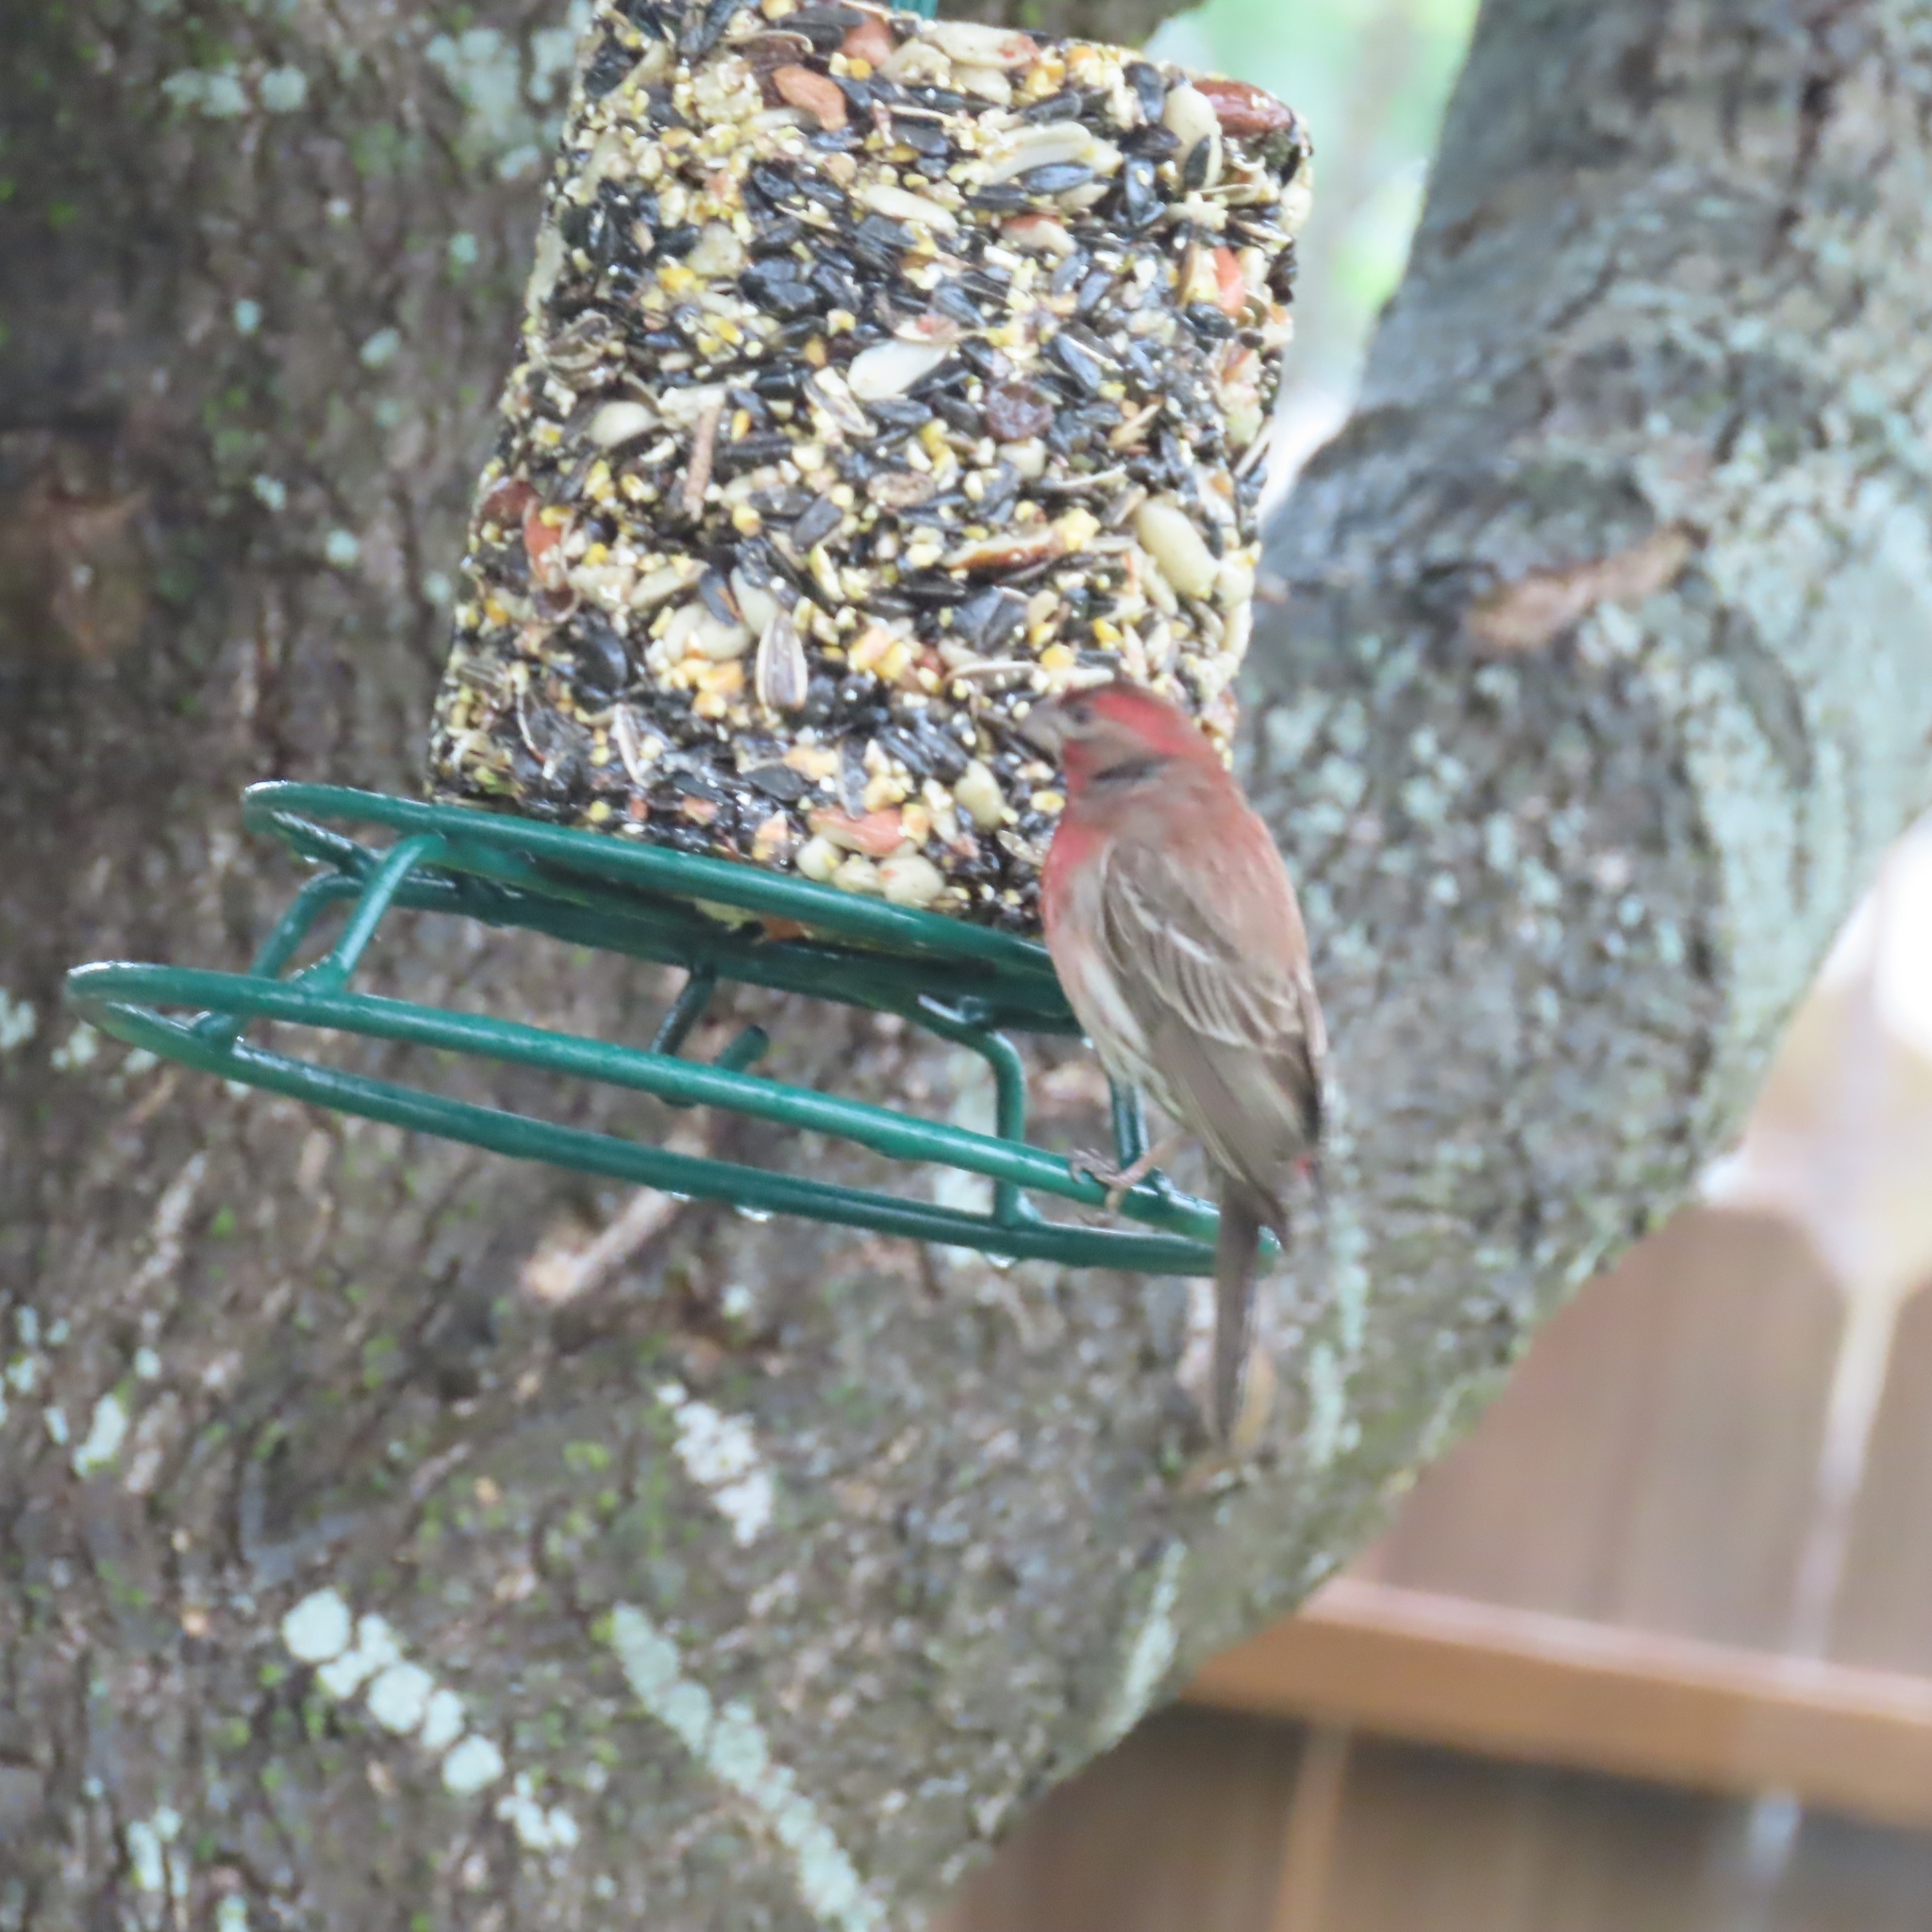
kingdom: Animalia
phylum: Chordata
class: Aves
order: Passeriformes
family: Fringillidae
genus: Haemorhous
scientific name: Haemorhous mexicanus
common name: House finch
